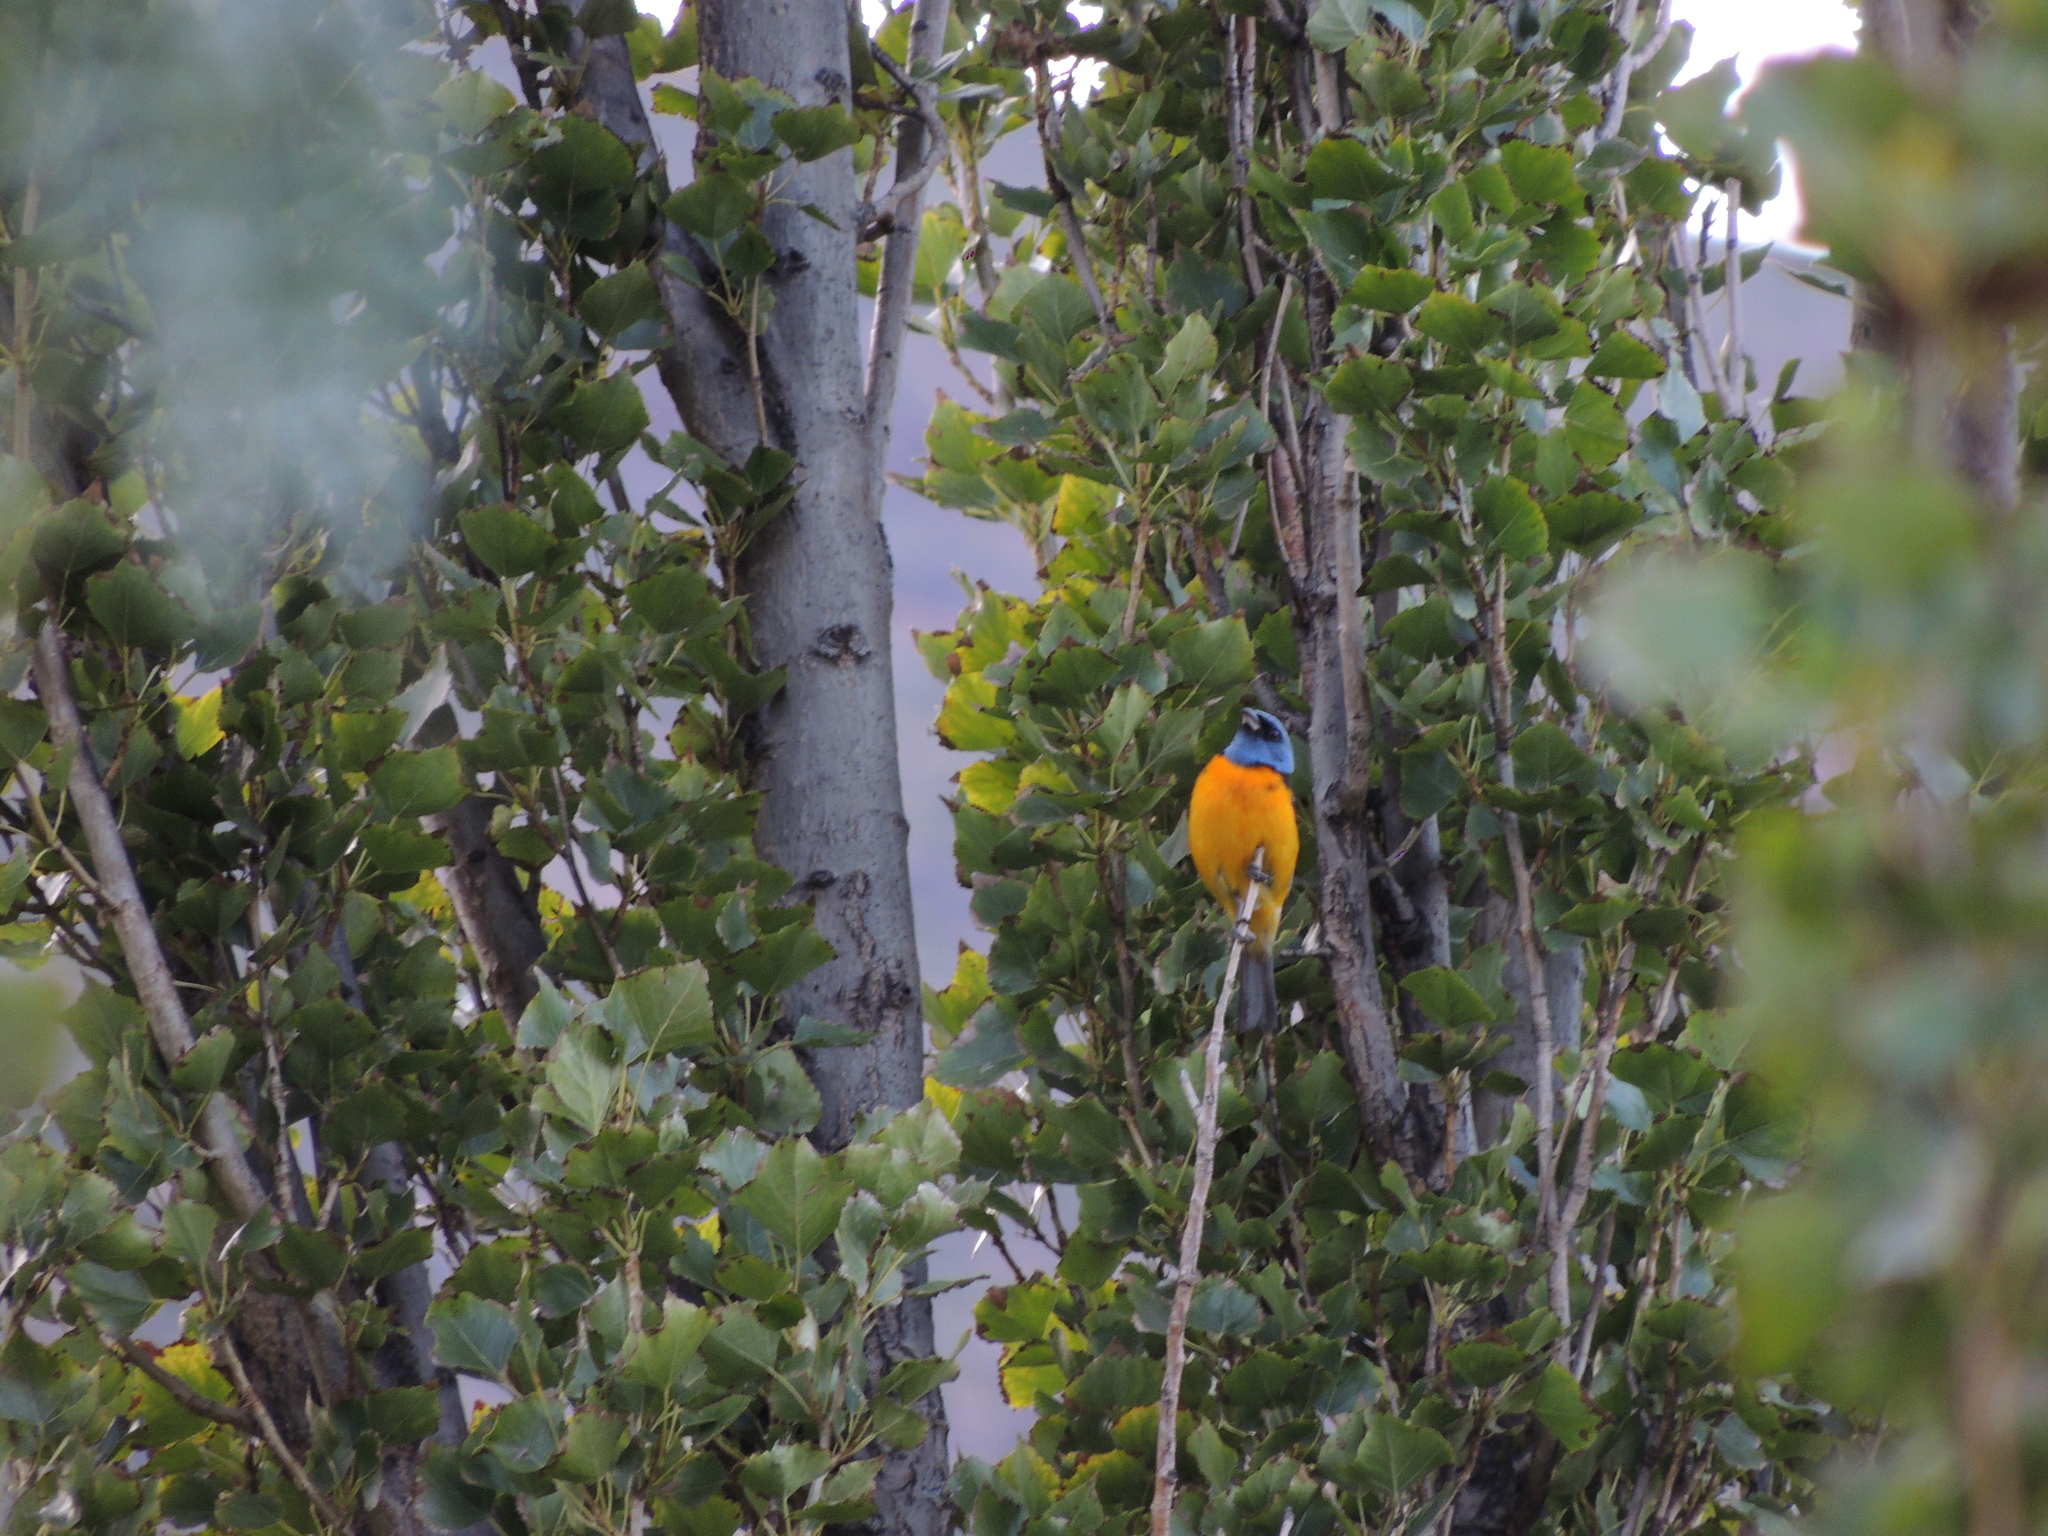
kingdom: Animalia
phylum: Chordata
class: Aves
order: Passeriformes
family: Thraupidae
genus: Rauenia
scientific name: Rauenia bonariensis
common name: Blue-and-yellow tanager
